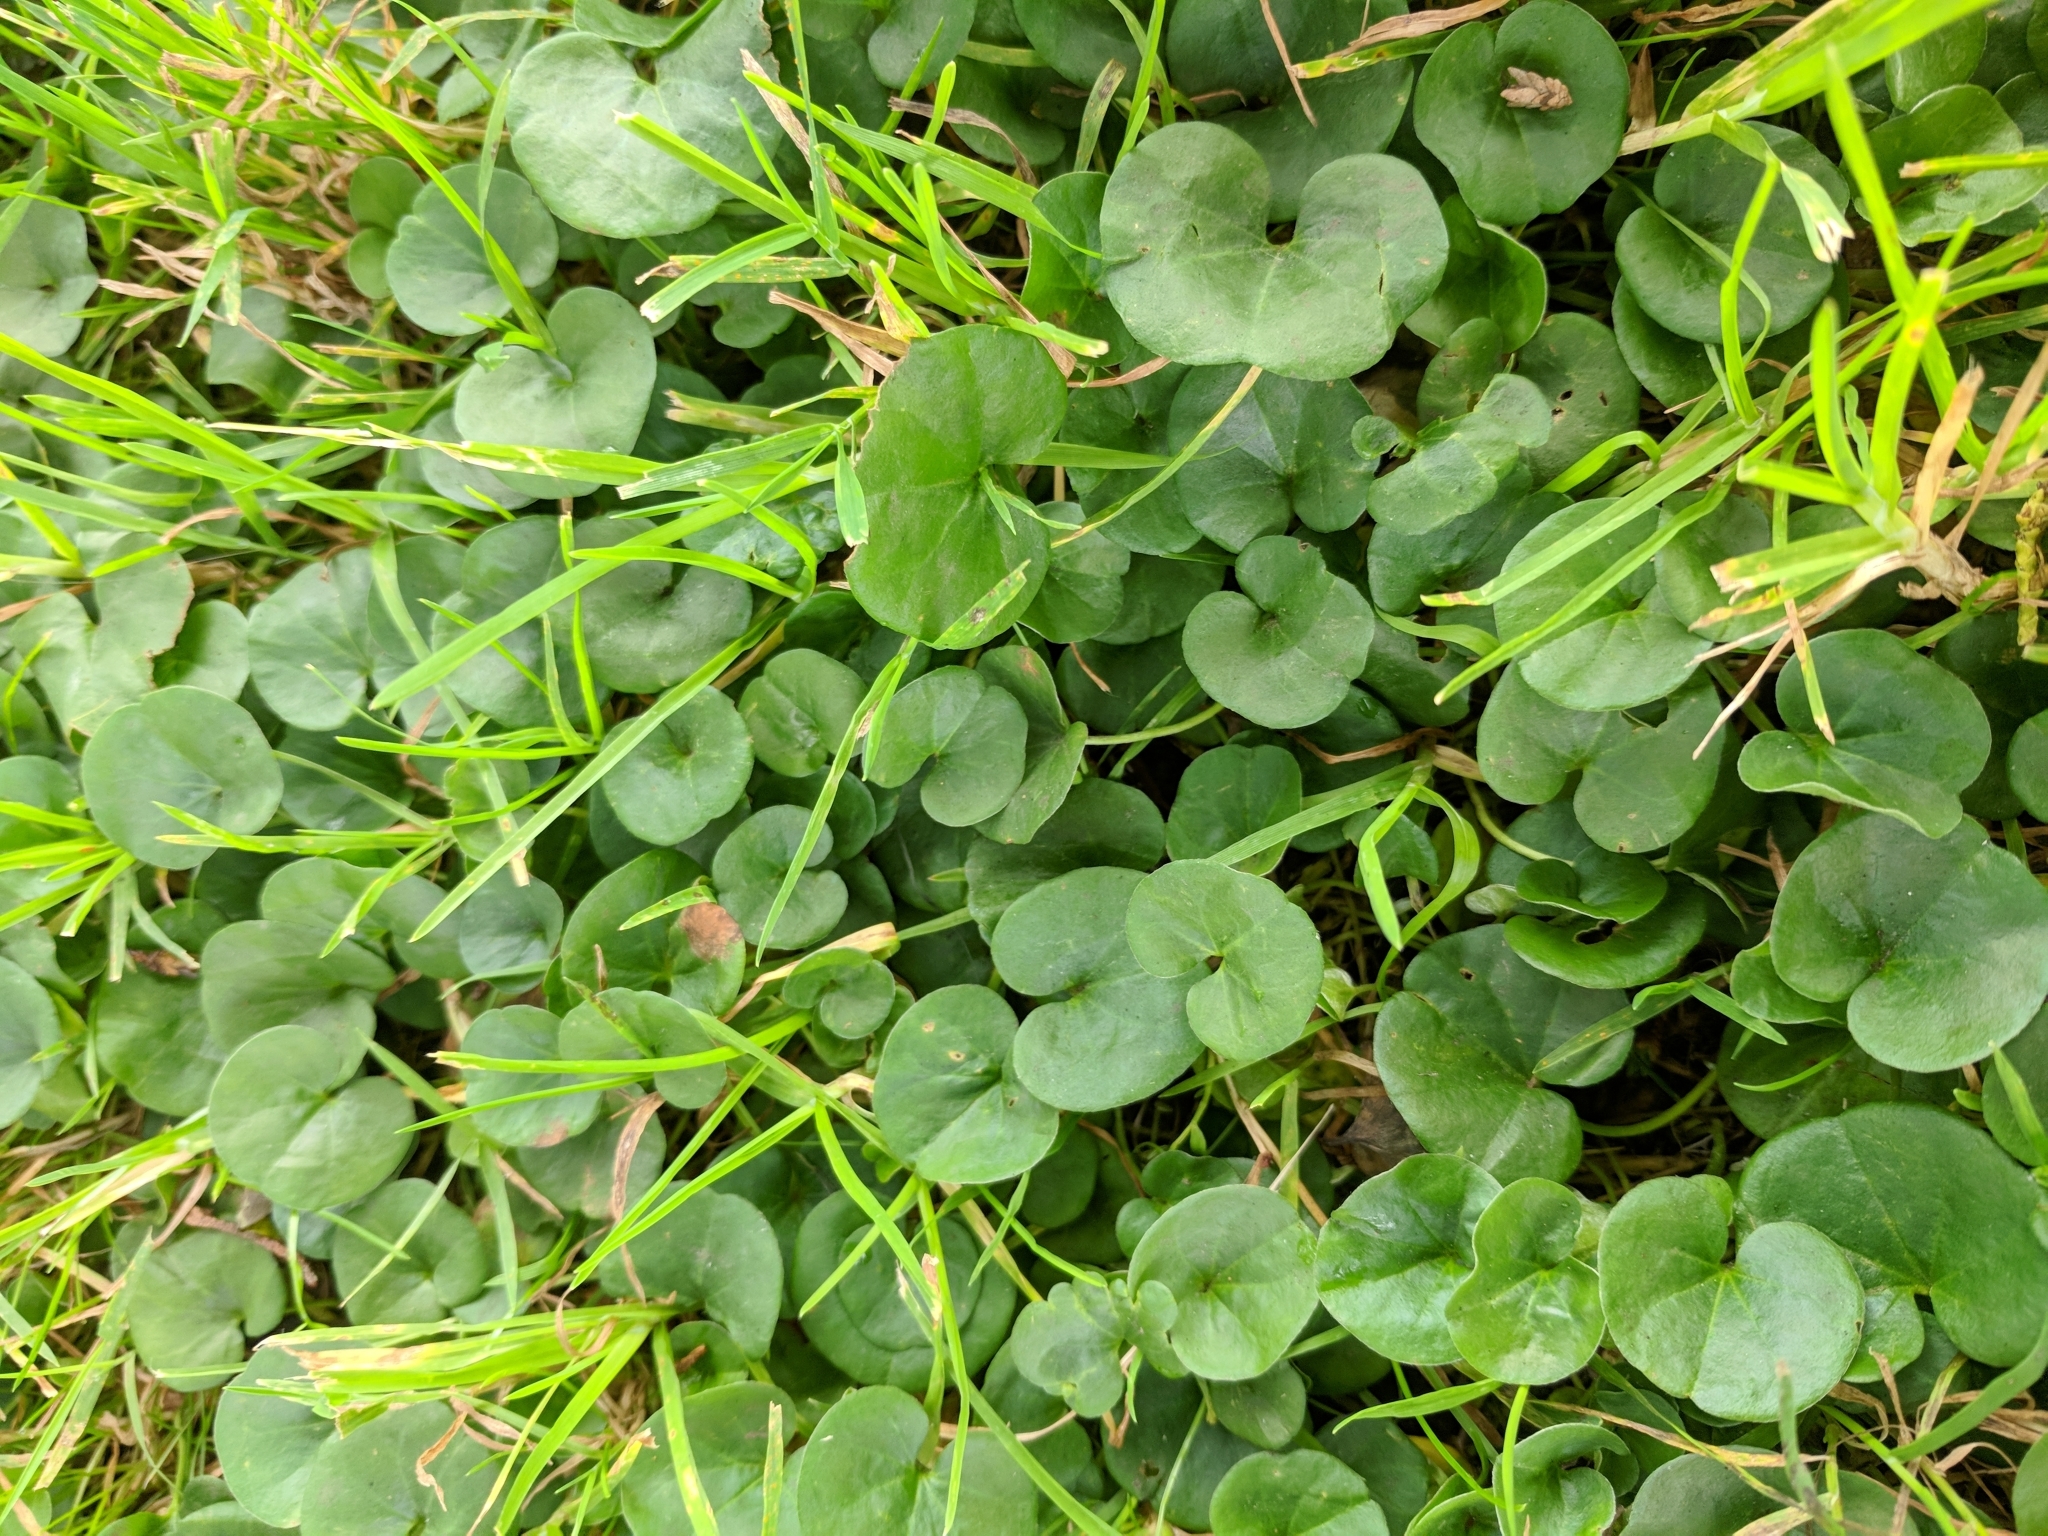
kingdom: Plantae
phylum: Tracheophyta
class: Magnoliopsida
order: Solanales
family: Convolvulaceae
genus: Dichondra
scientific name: Dichondra donelliana
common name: California ponysfoot
